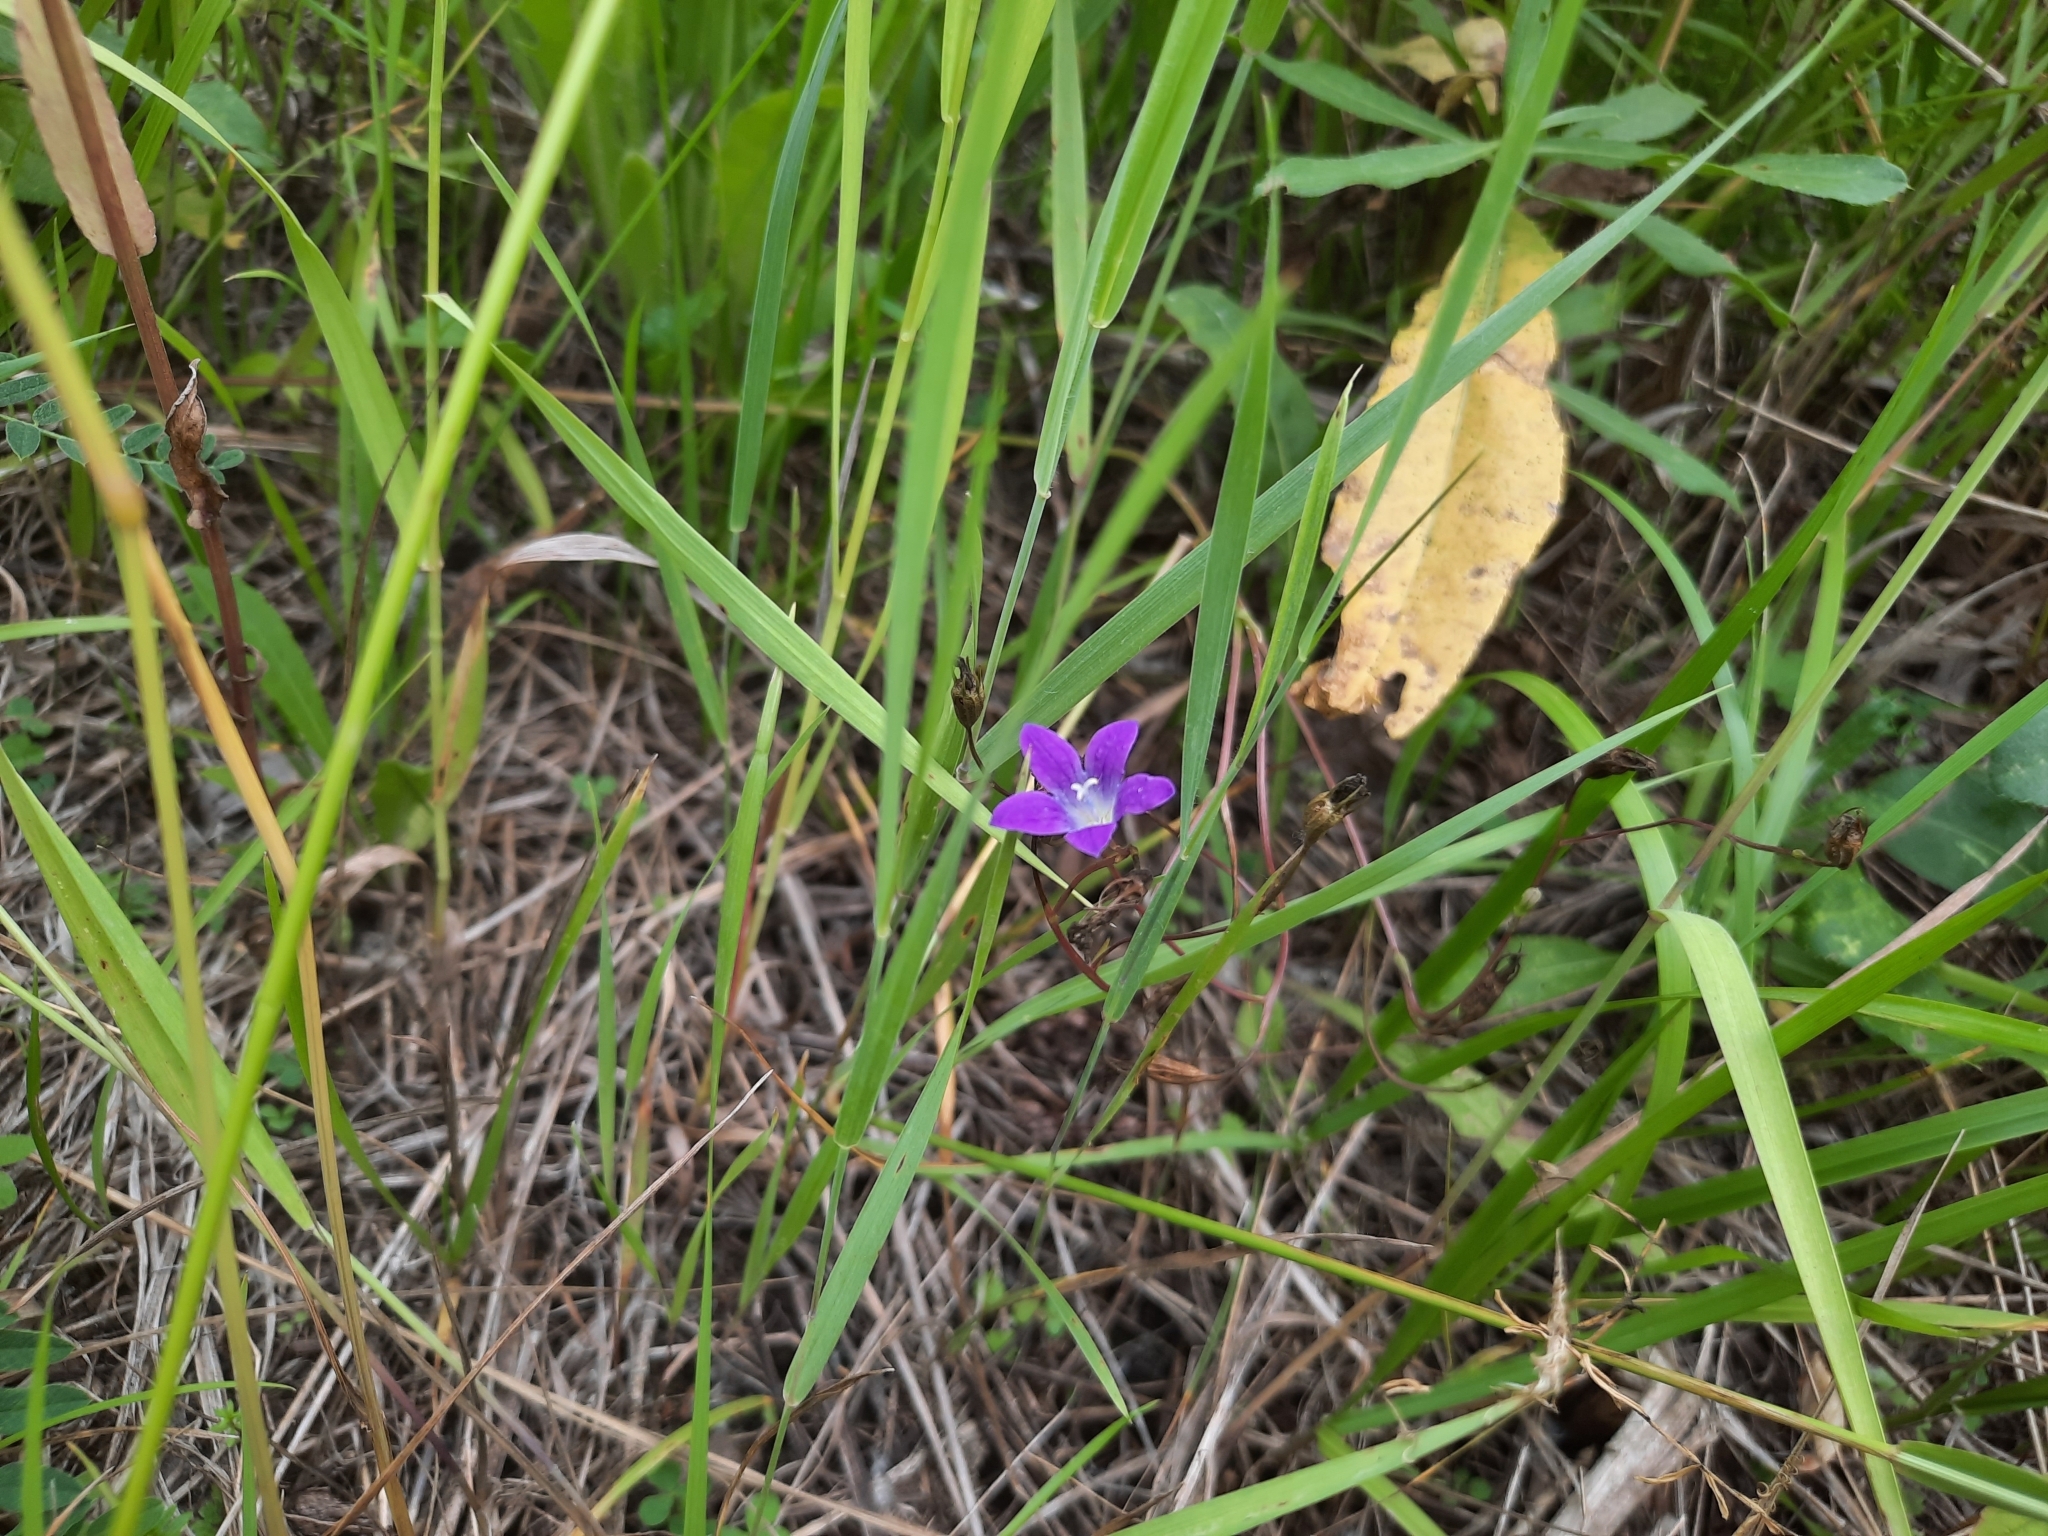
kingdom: Plantae
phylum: Tracheophyta
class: Magnoliopsida
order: Asterales
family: Campanulaceae
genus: Campanula
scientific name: Campanula patula
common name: Spreading bellflower
